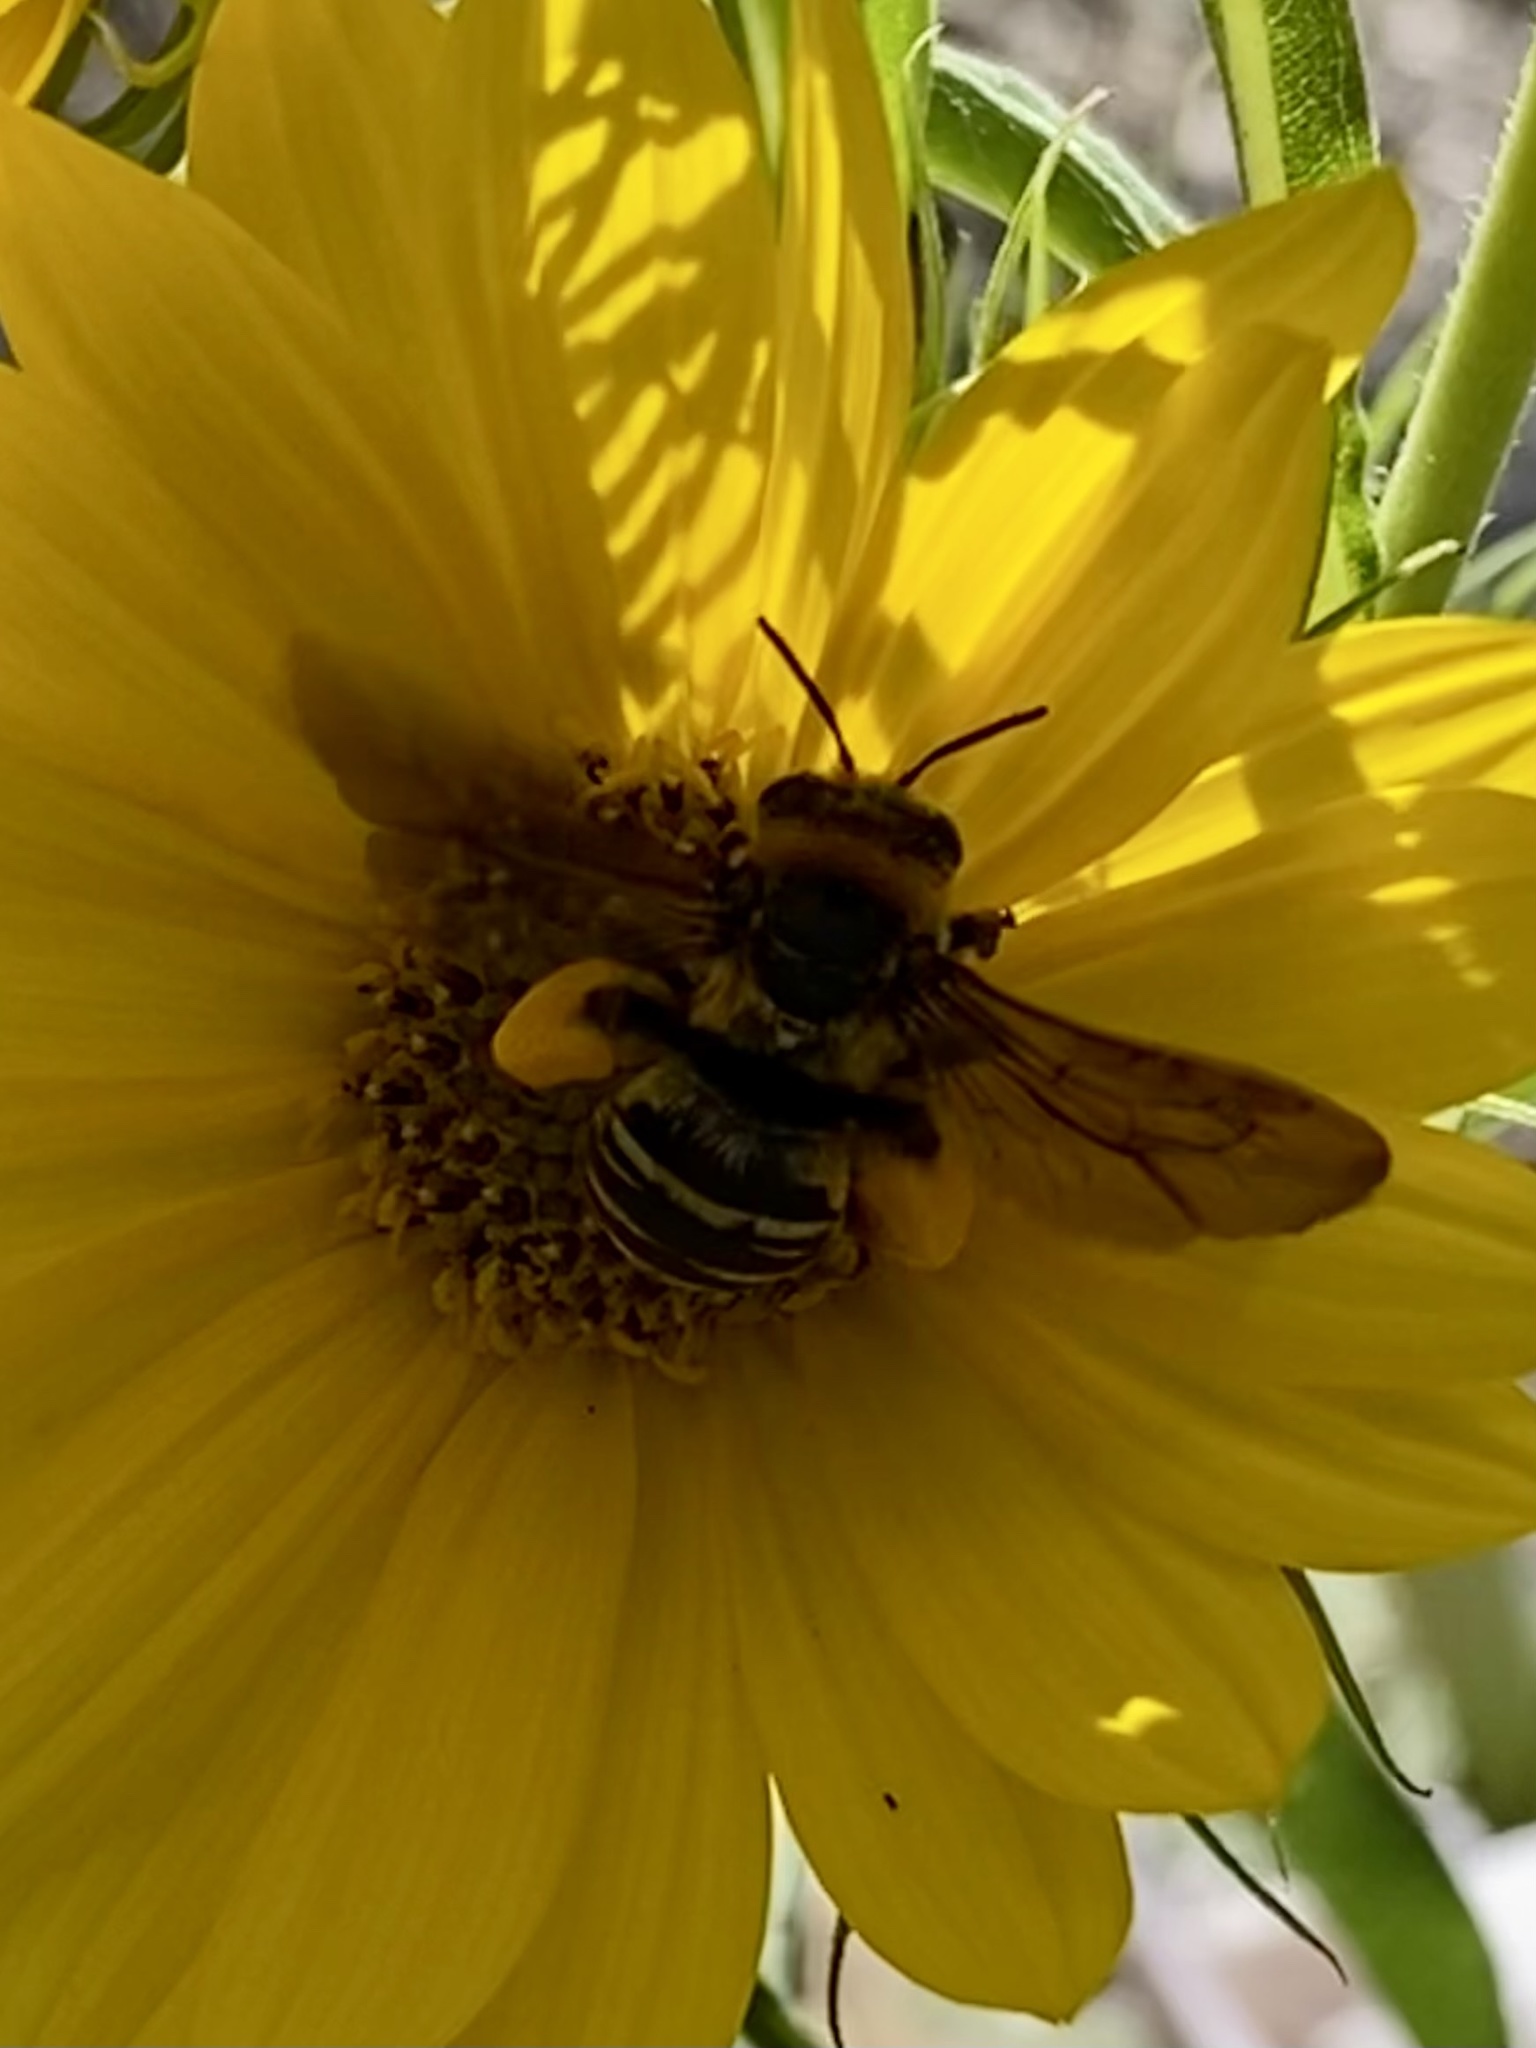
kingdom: Animalia
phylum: Arthropoda
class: Insecta
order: Hymenoptera
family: Apidae
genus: Svastra
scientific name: Svastra obliqua
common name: Oblique longhorn
